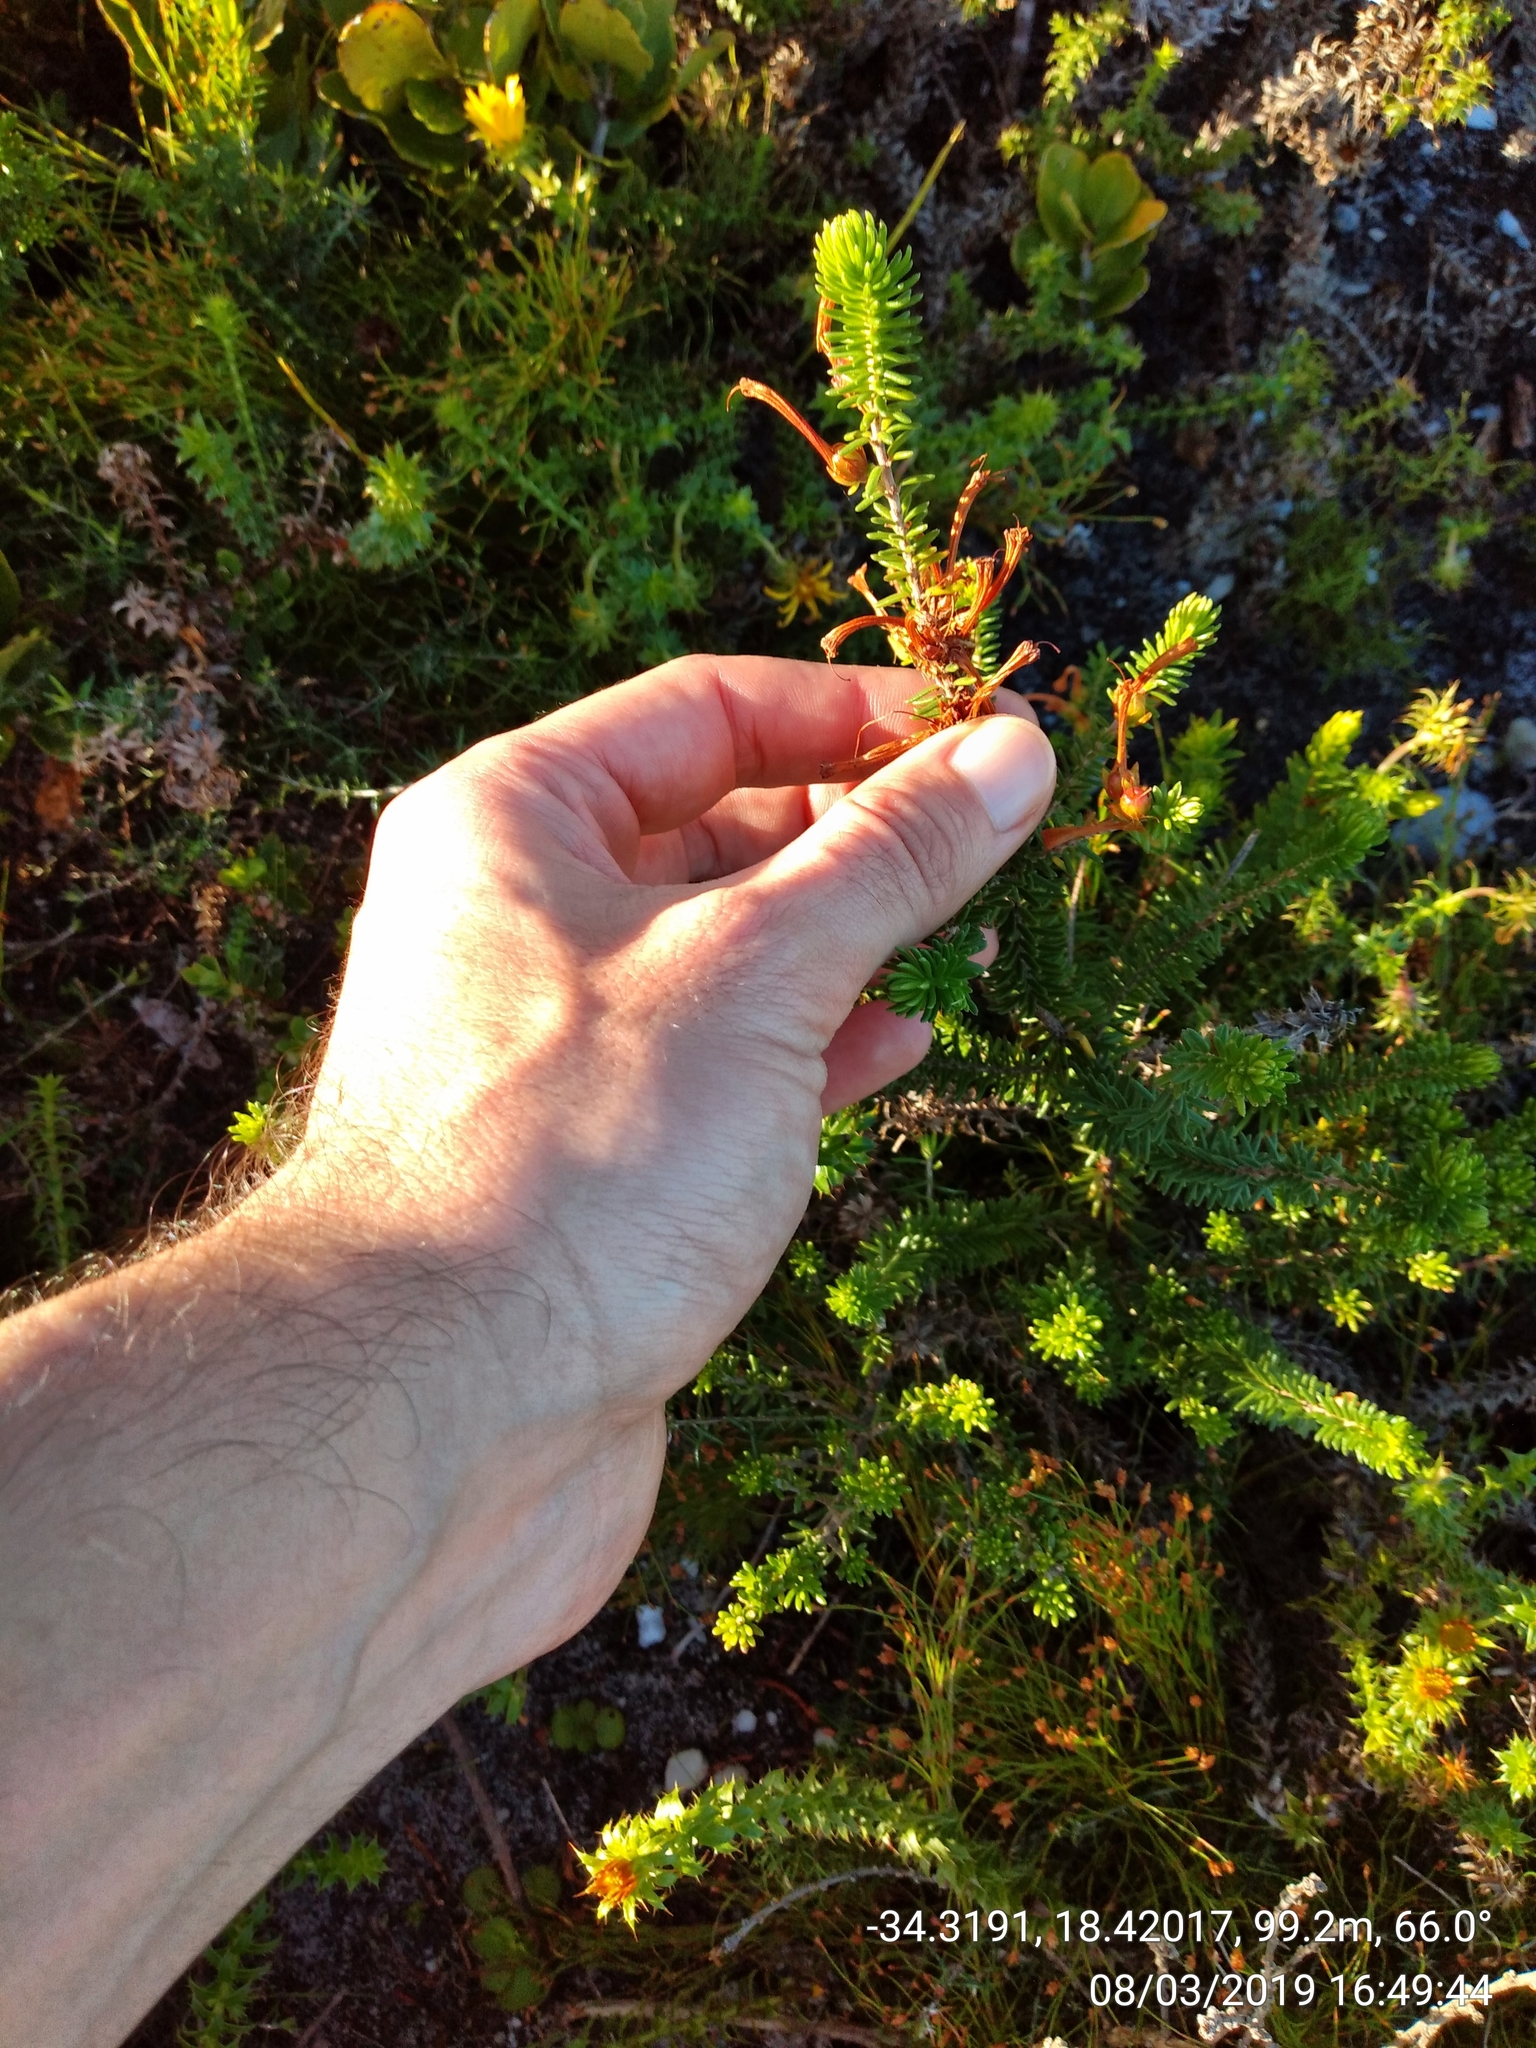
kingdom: Plantae
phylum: Tracheophyta
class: Magnoliopsida
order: Ericales
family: Ericaceae
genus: Erica
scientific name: Erica abietina
